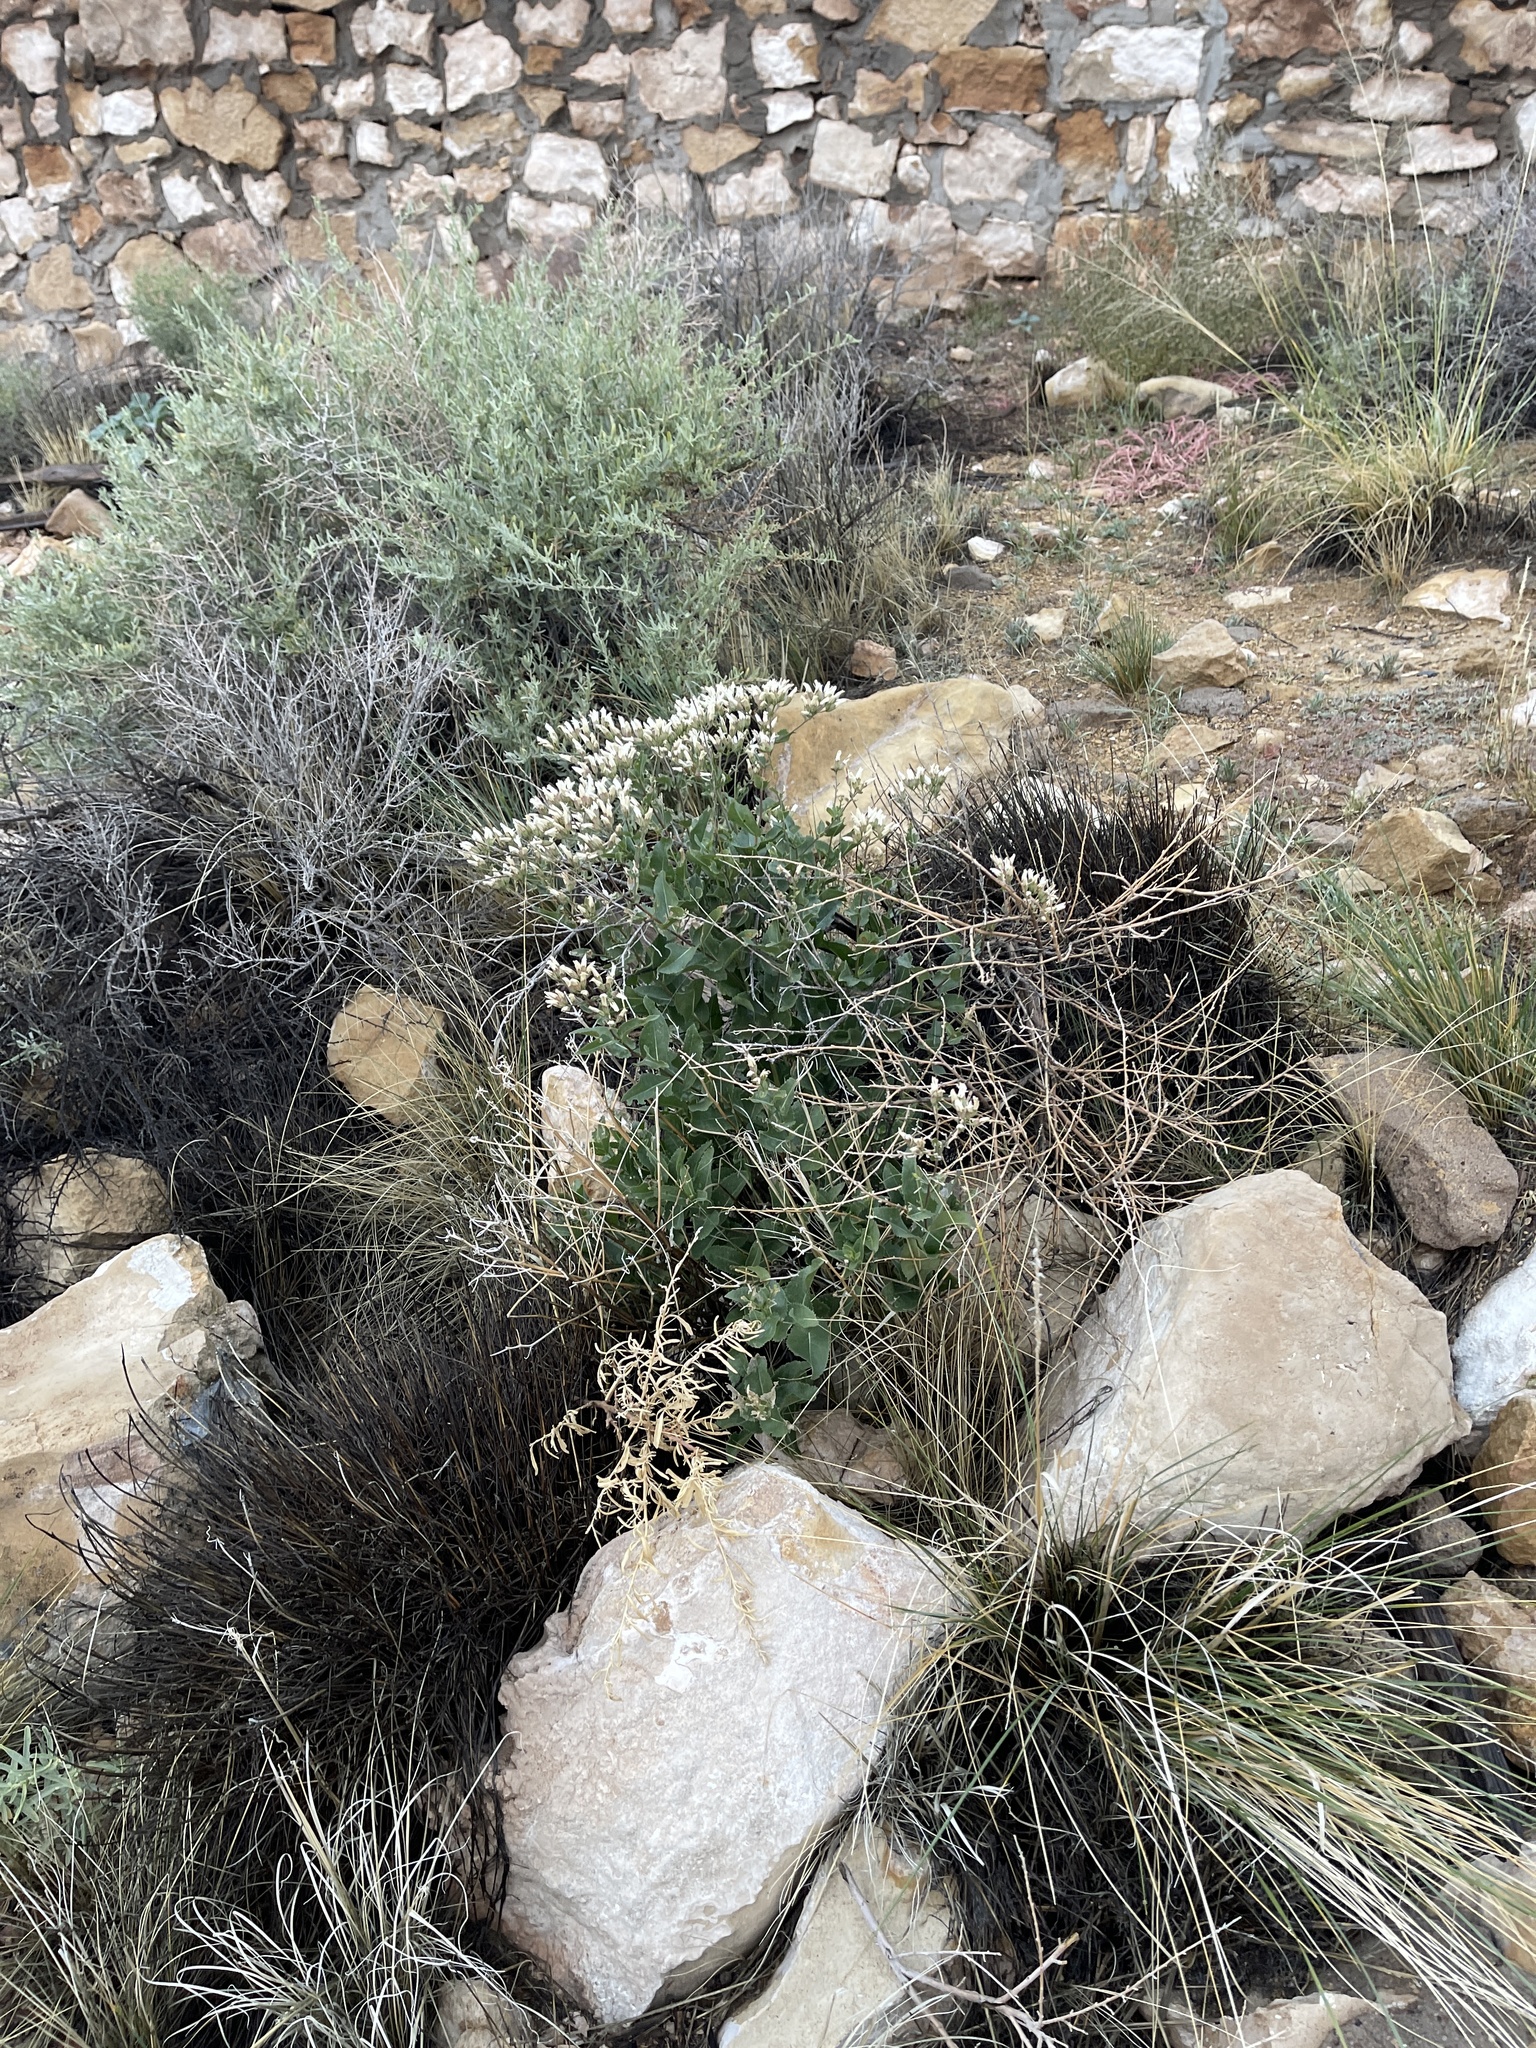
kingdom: Plantae
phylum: Tracheophyta
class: Magnoliopsida
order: Asterales
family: Asteraceae
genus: Acourtia
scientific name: Acourtia wrightii
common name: Brownfoot
